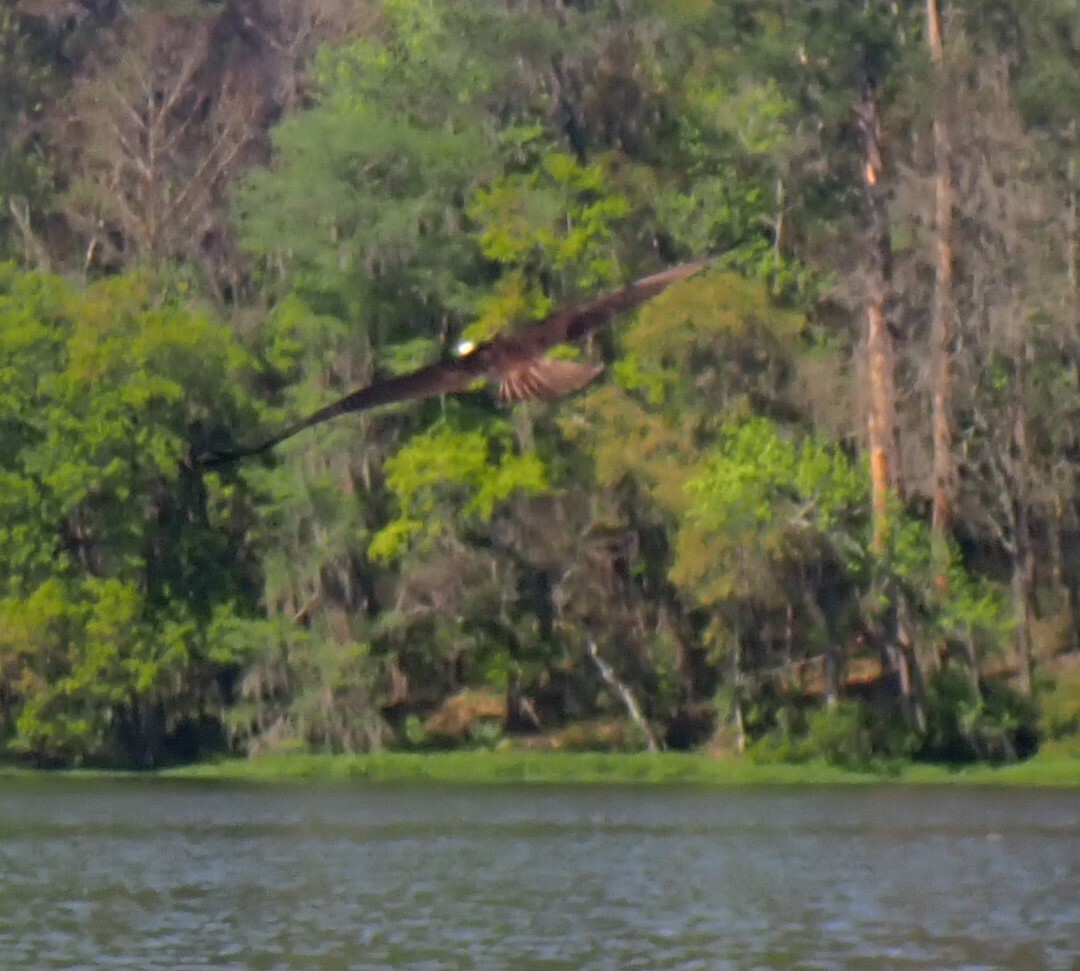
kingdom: Animalia
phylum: Chordata
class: Aves
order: Accipitriformes
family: Pandionidae
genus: Pandion
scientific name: Pandion haliaetus
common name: Osprey
